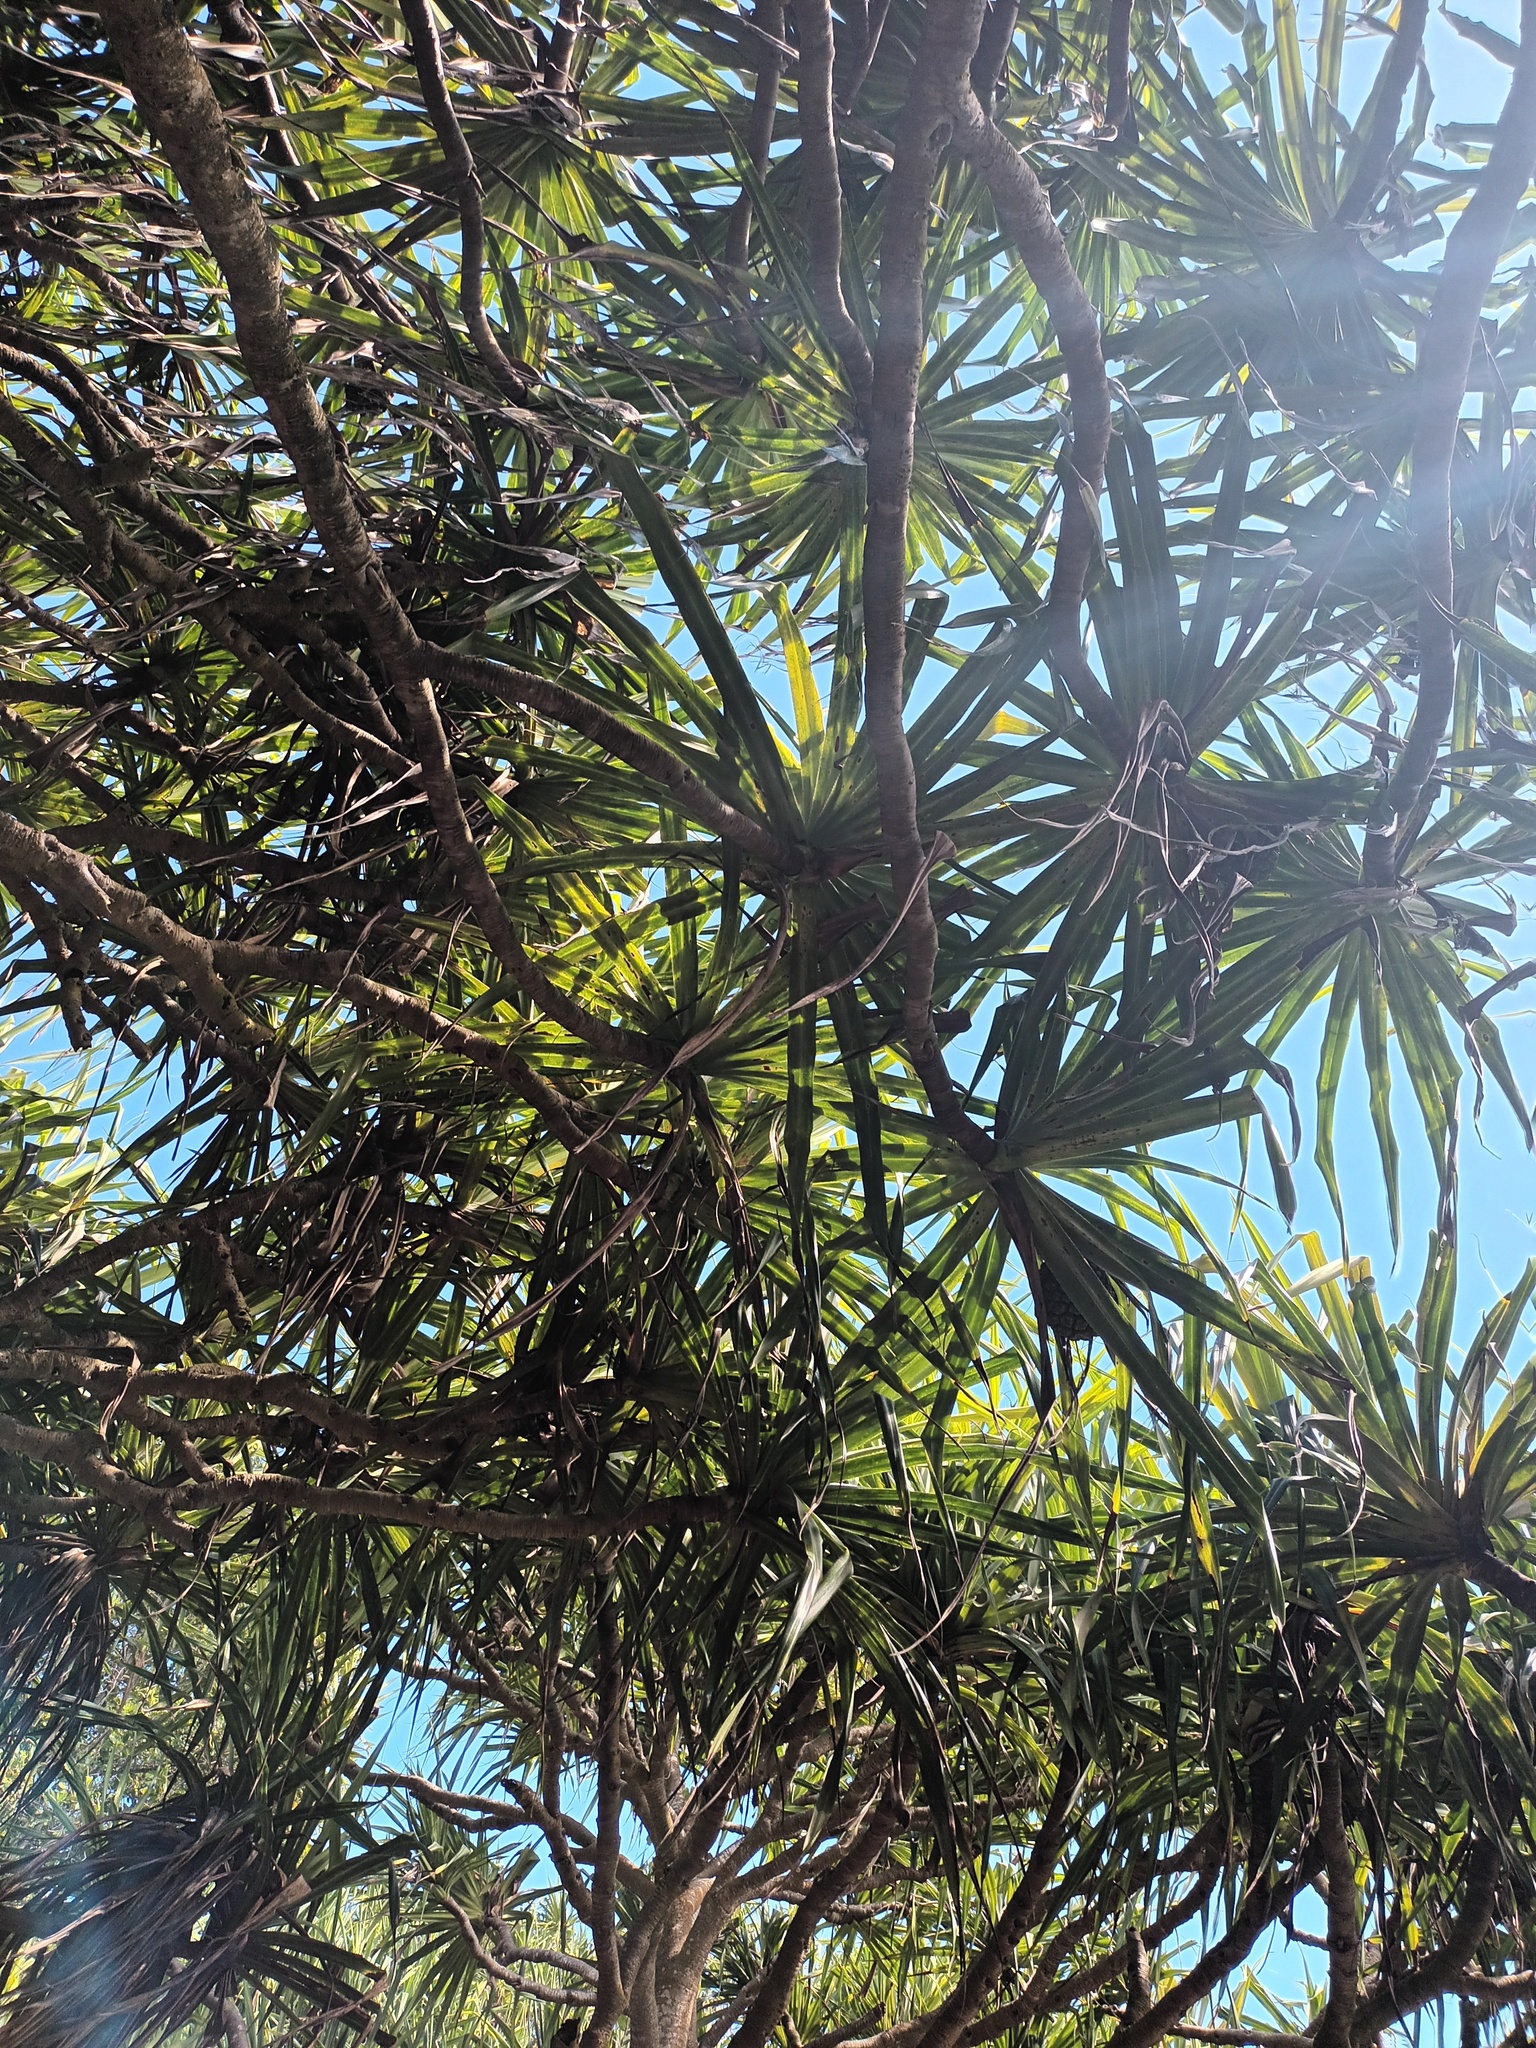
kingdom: Plantae
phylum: Tracheophyta
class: Liliopsida
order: Pandanales
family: Pandanaceae
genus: Pandanus
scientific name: Pandanus tectorius
